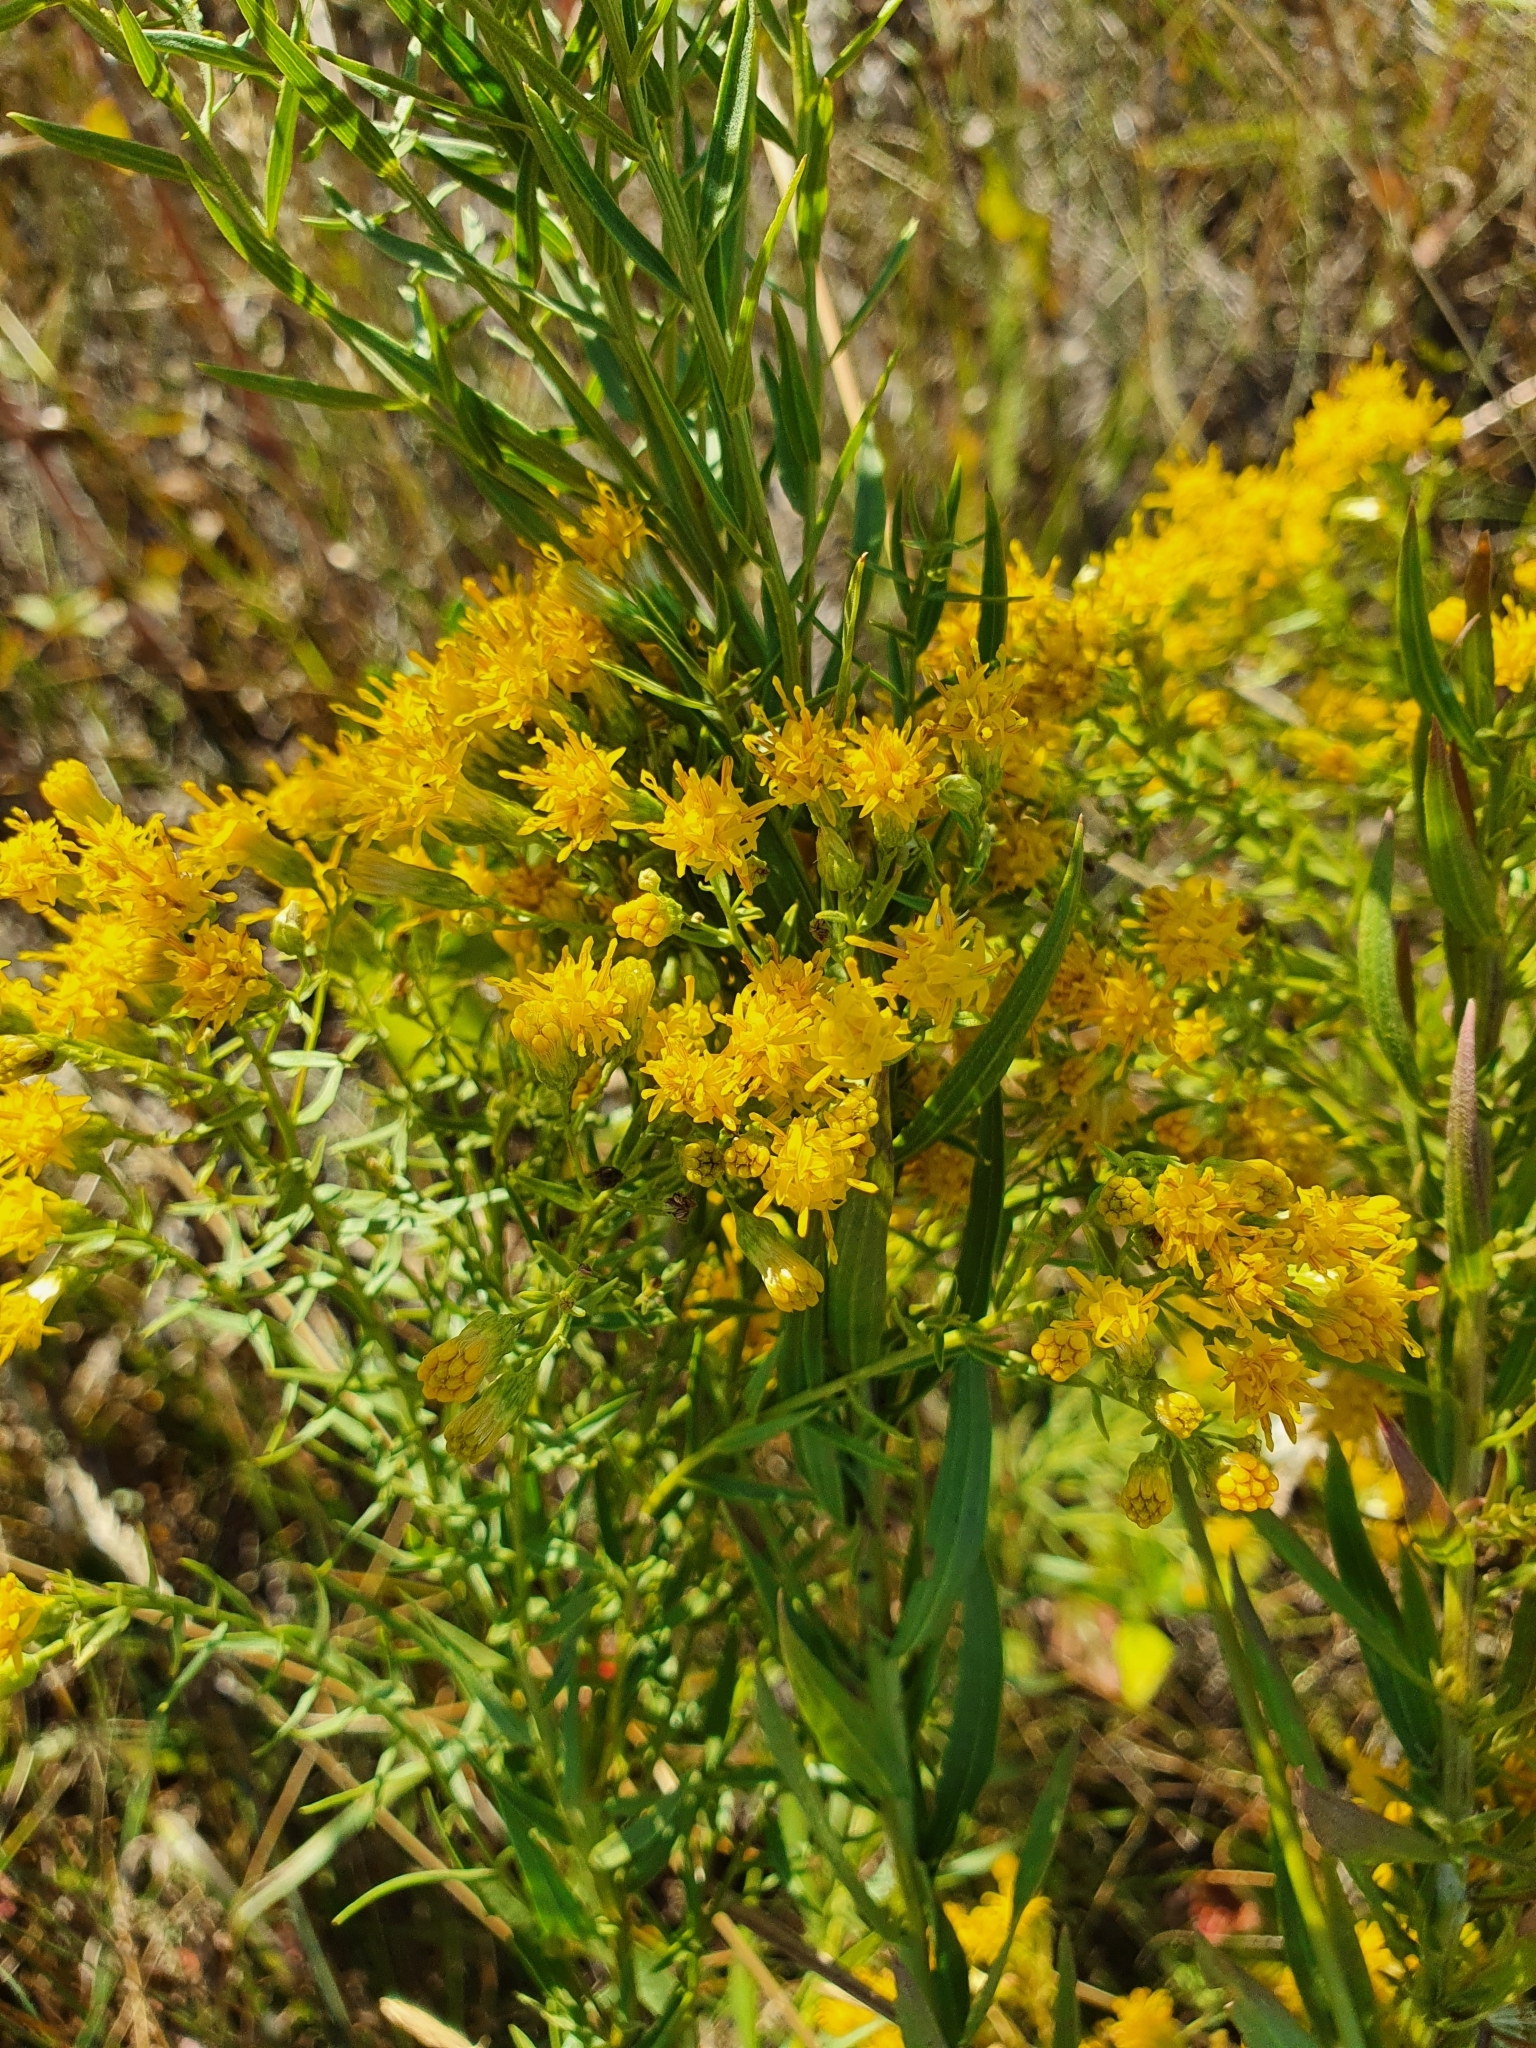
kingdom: Plantae
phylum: Tracheophyta
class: Magnoliopsida
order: Asterales
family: Asteraceae
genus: Galatella
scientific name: Galatella biflora
